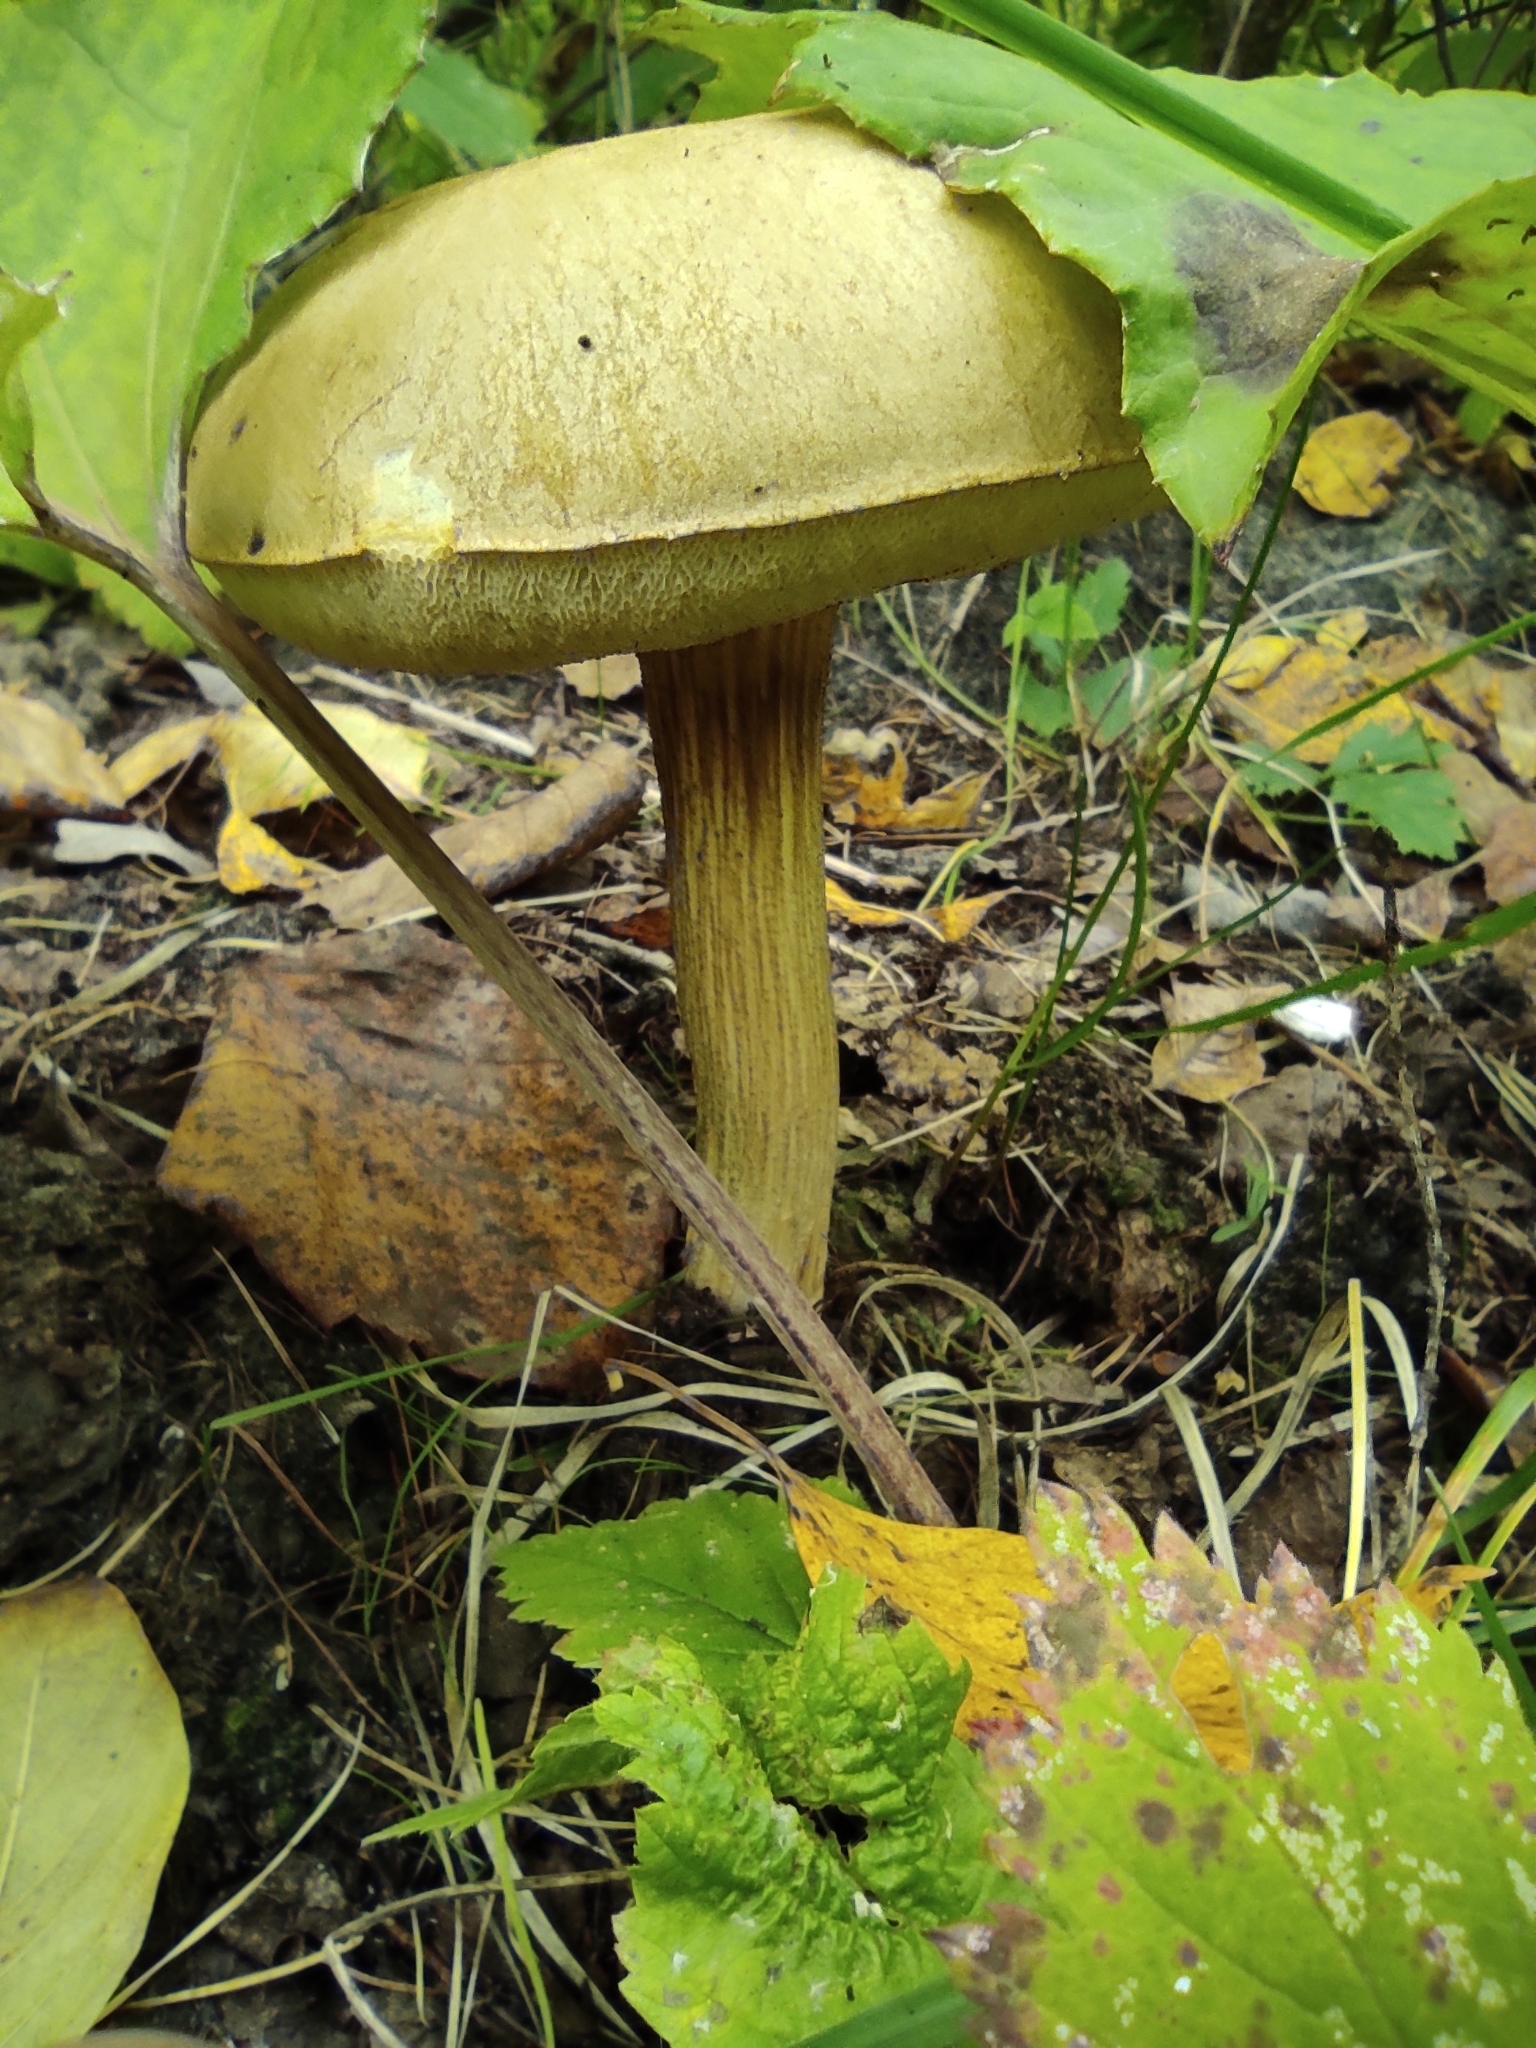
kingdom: Fungi
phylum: Basidiomycota
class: Agaricomycetes
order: Boletales
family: Boletaceae
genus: Leccinum
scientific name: Leccinum scabrum
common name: Blushing bolete
